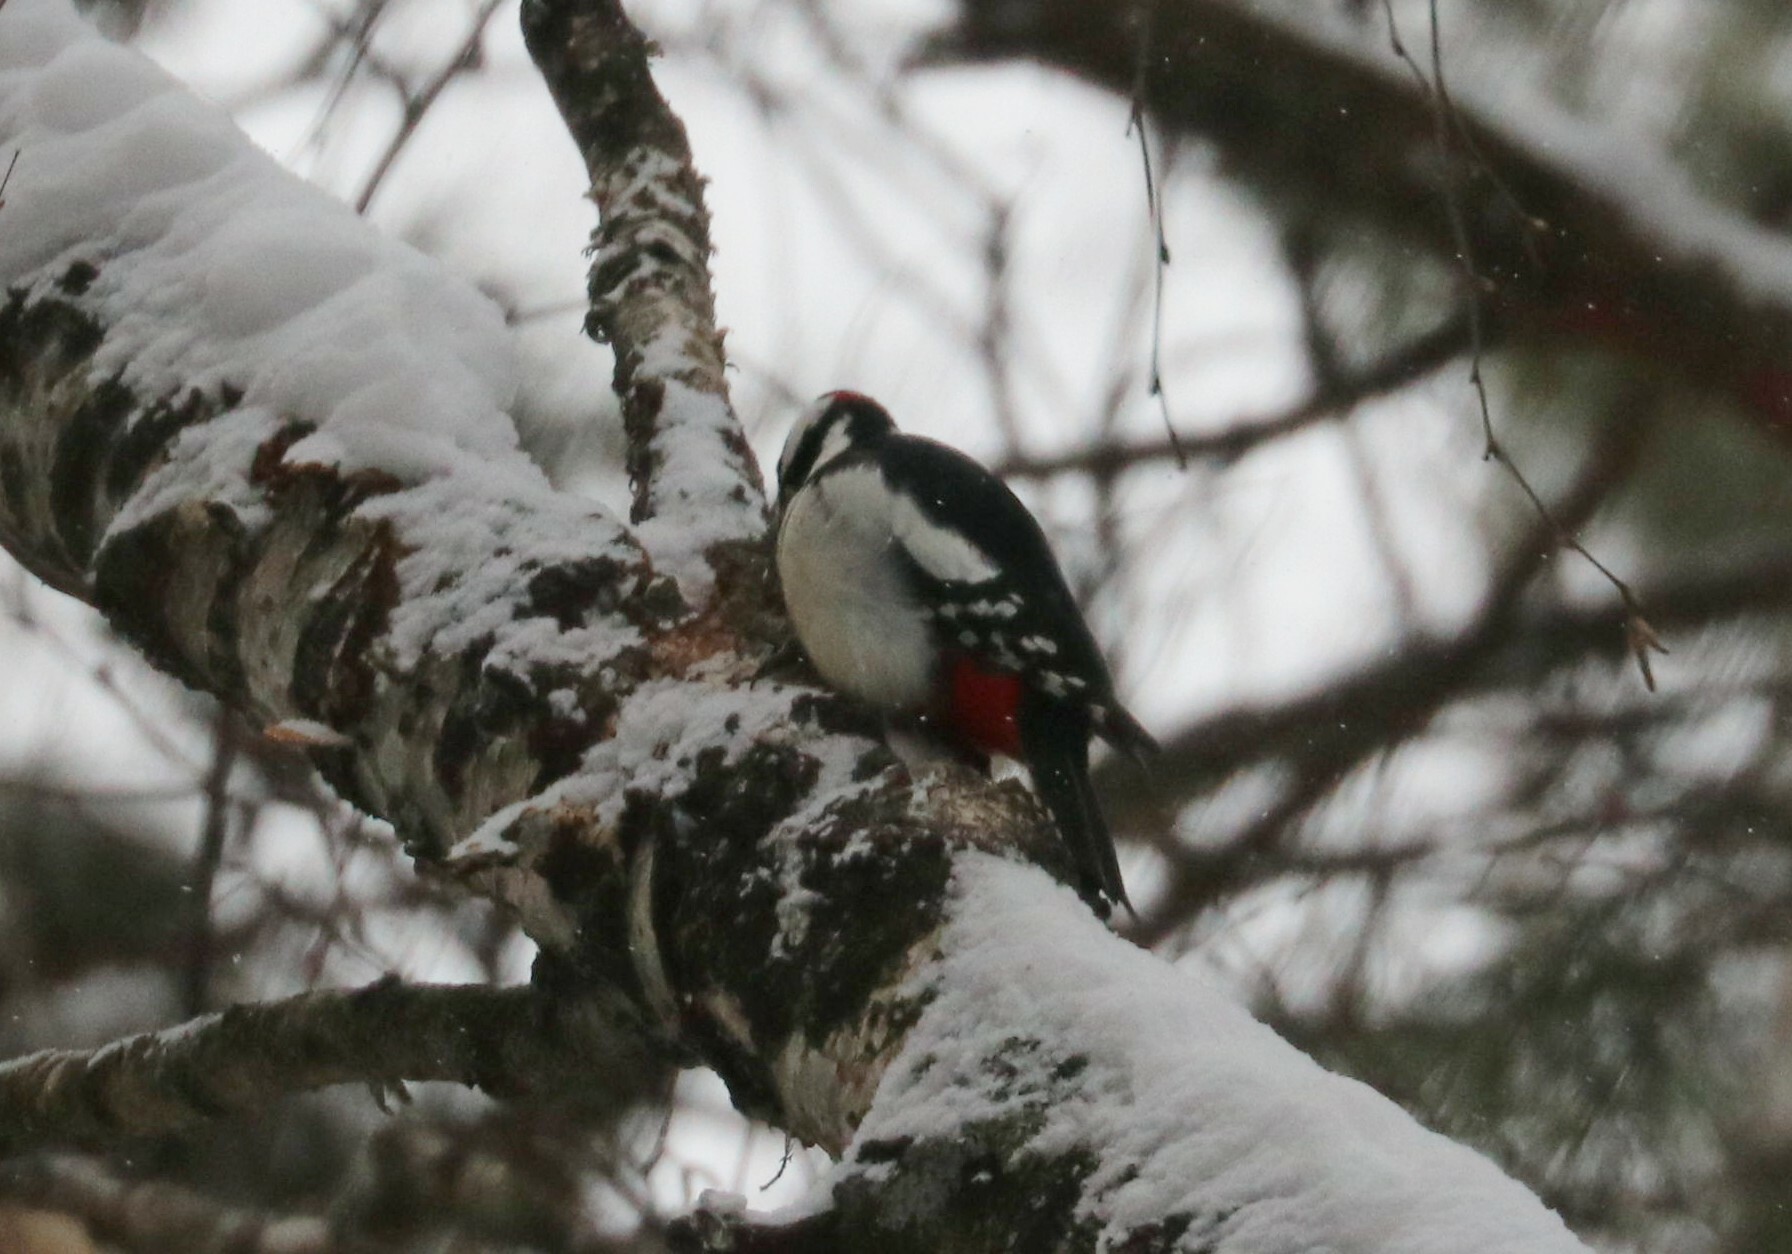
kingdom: Animalia
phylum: Chordata
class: Aves
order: Piciformes
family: Picidae
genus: Dendrocopos
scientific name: Dendrocopos major
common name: Great spotted woodpecker
